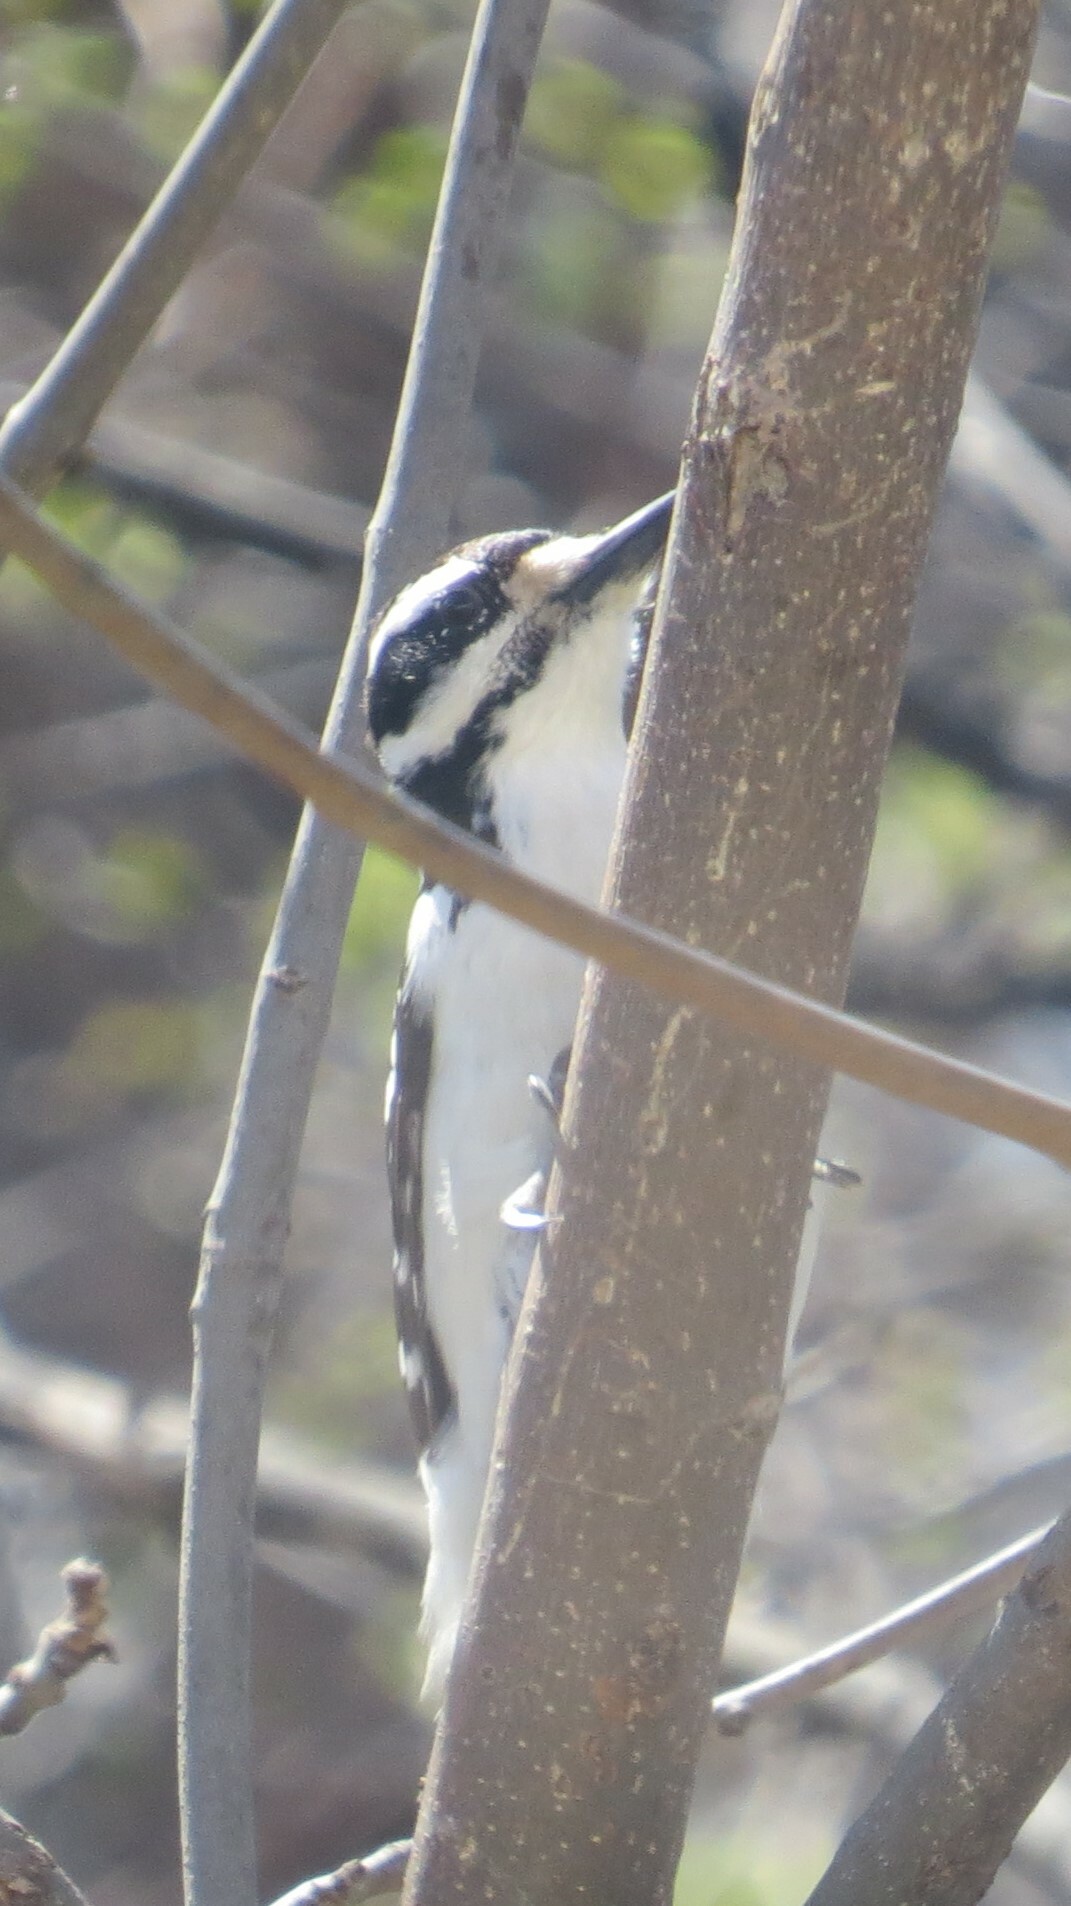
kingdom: Animalia
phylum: Chordata
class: Aves
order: Piciformes
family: Picidae
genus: Leuconotopicus
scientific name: Leuconotopicus villosus
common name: Hairy woodpecker
